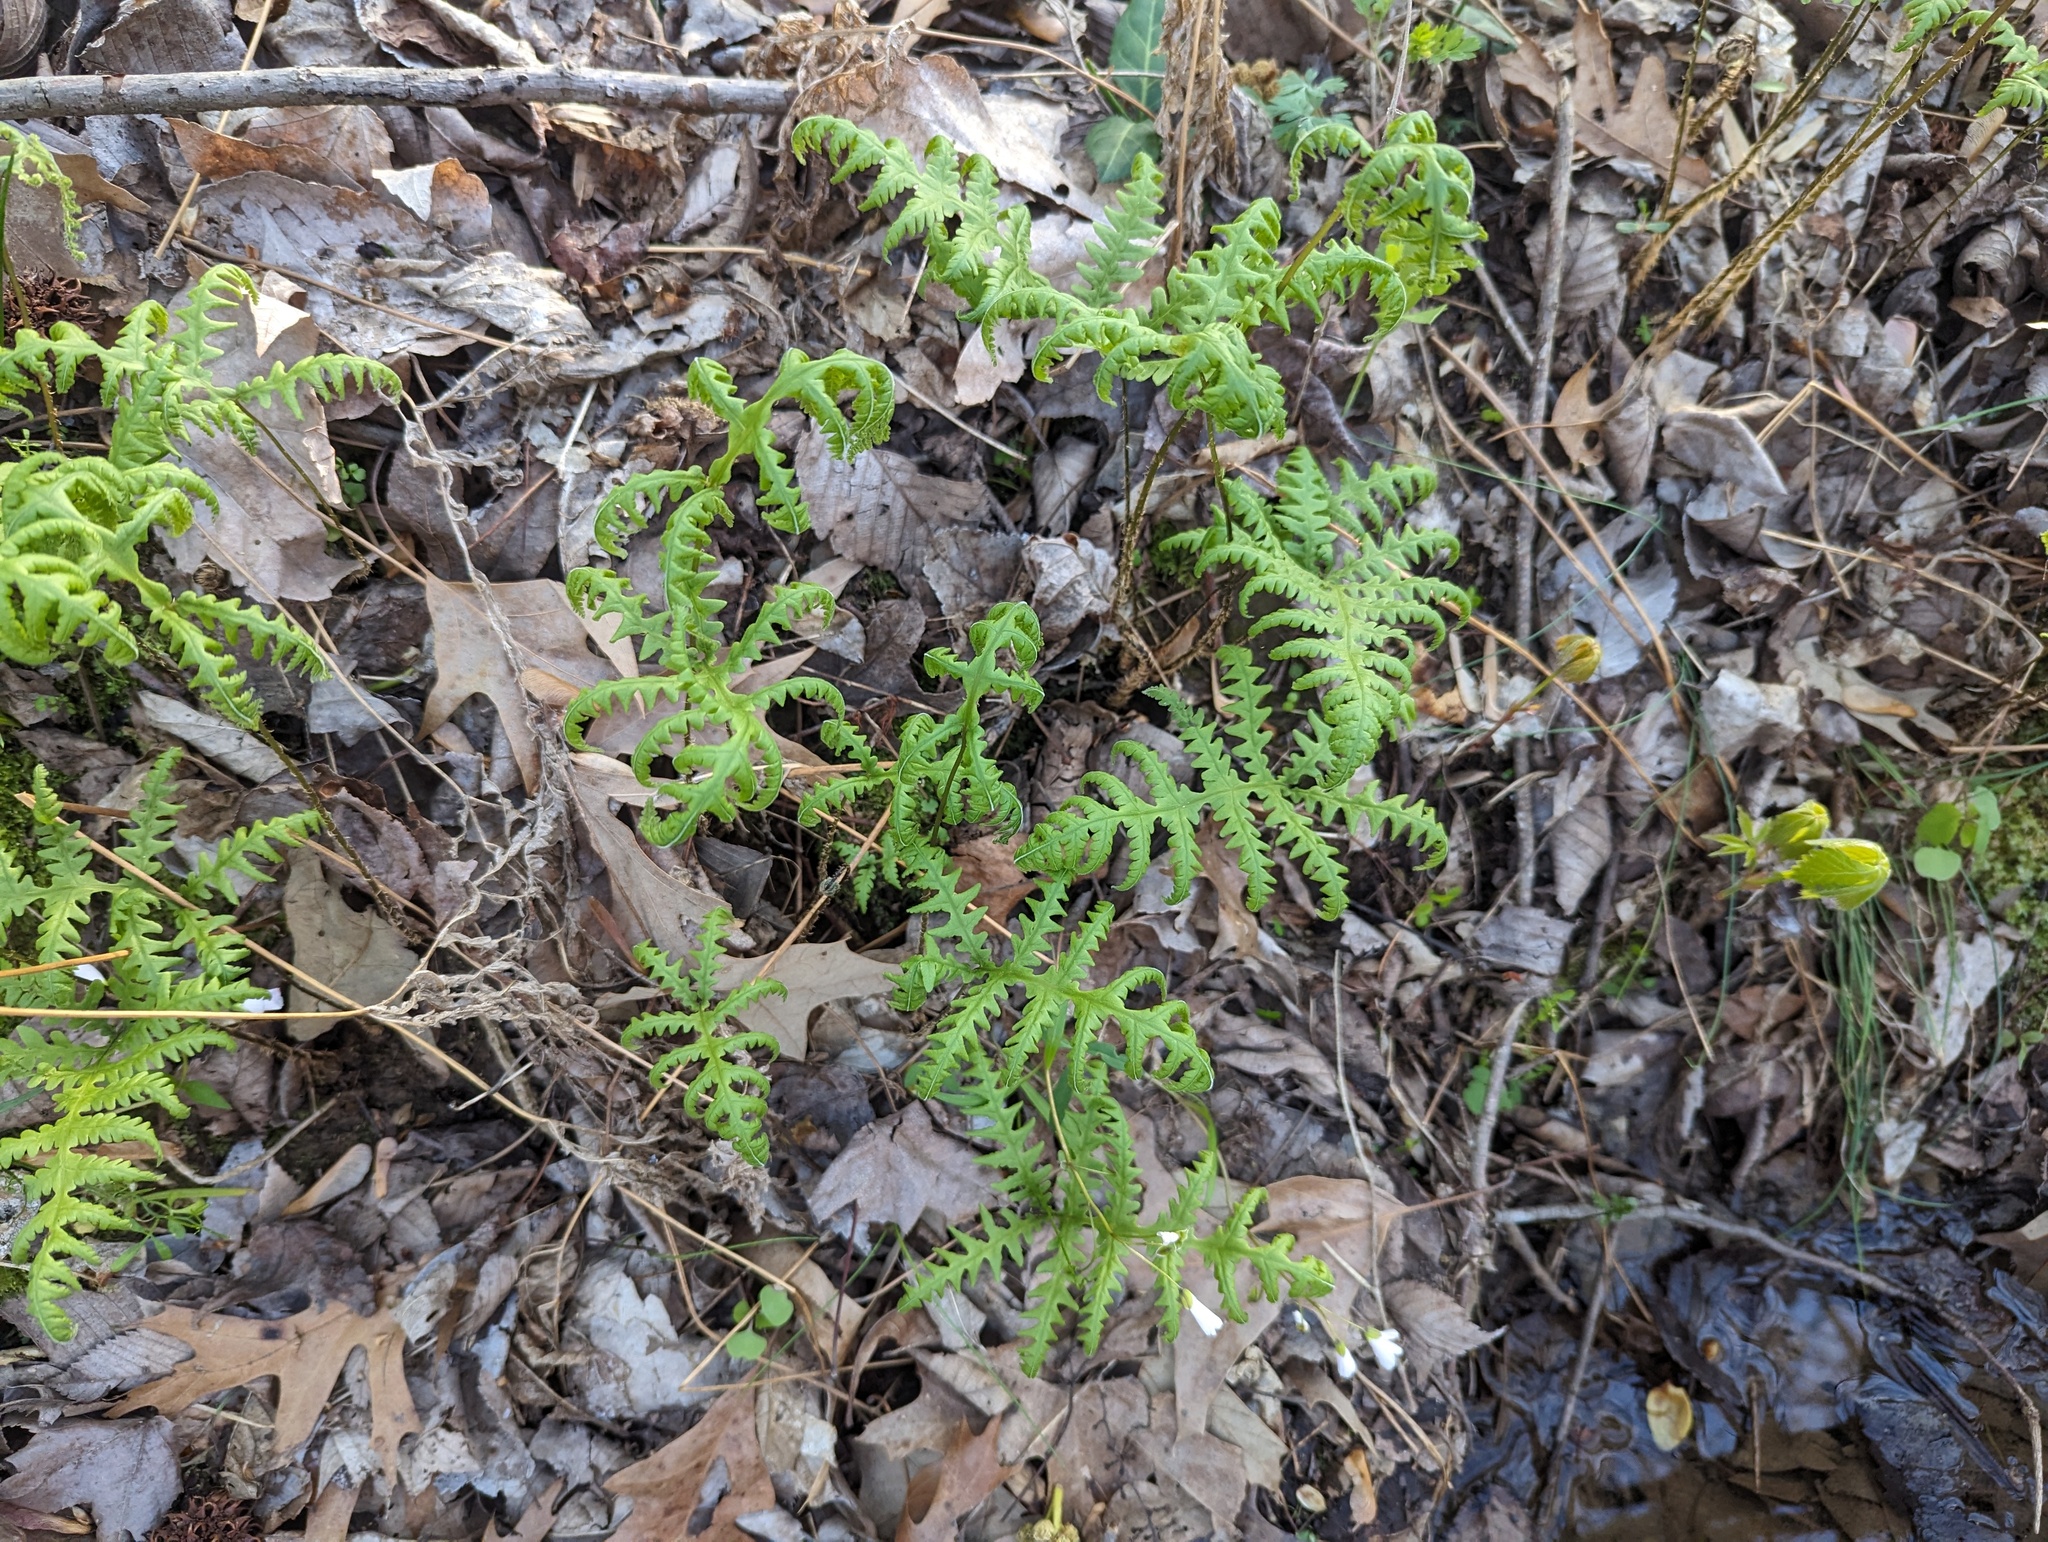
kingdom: Plantae
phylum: Tracheophyta
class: Polypodiopsida
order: Polypodiales
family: Thelypteridaceae
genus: Phegopteris
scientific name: Phegopteris hexagonoptera
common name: Broad beech fern
